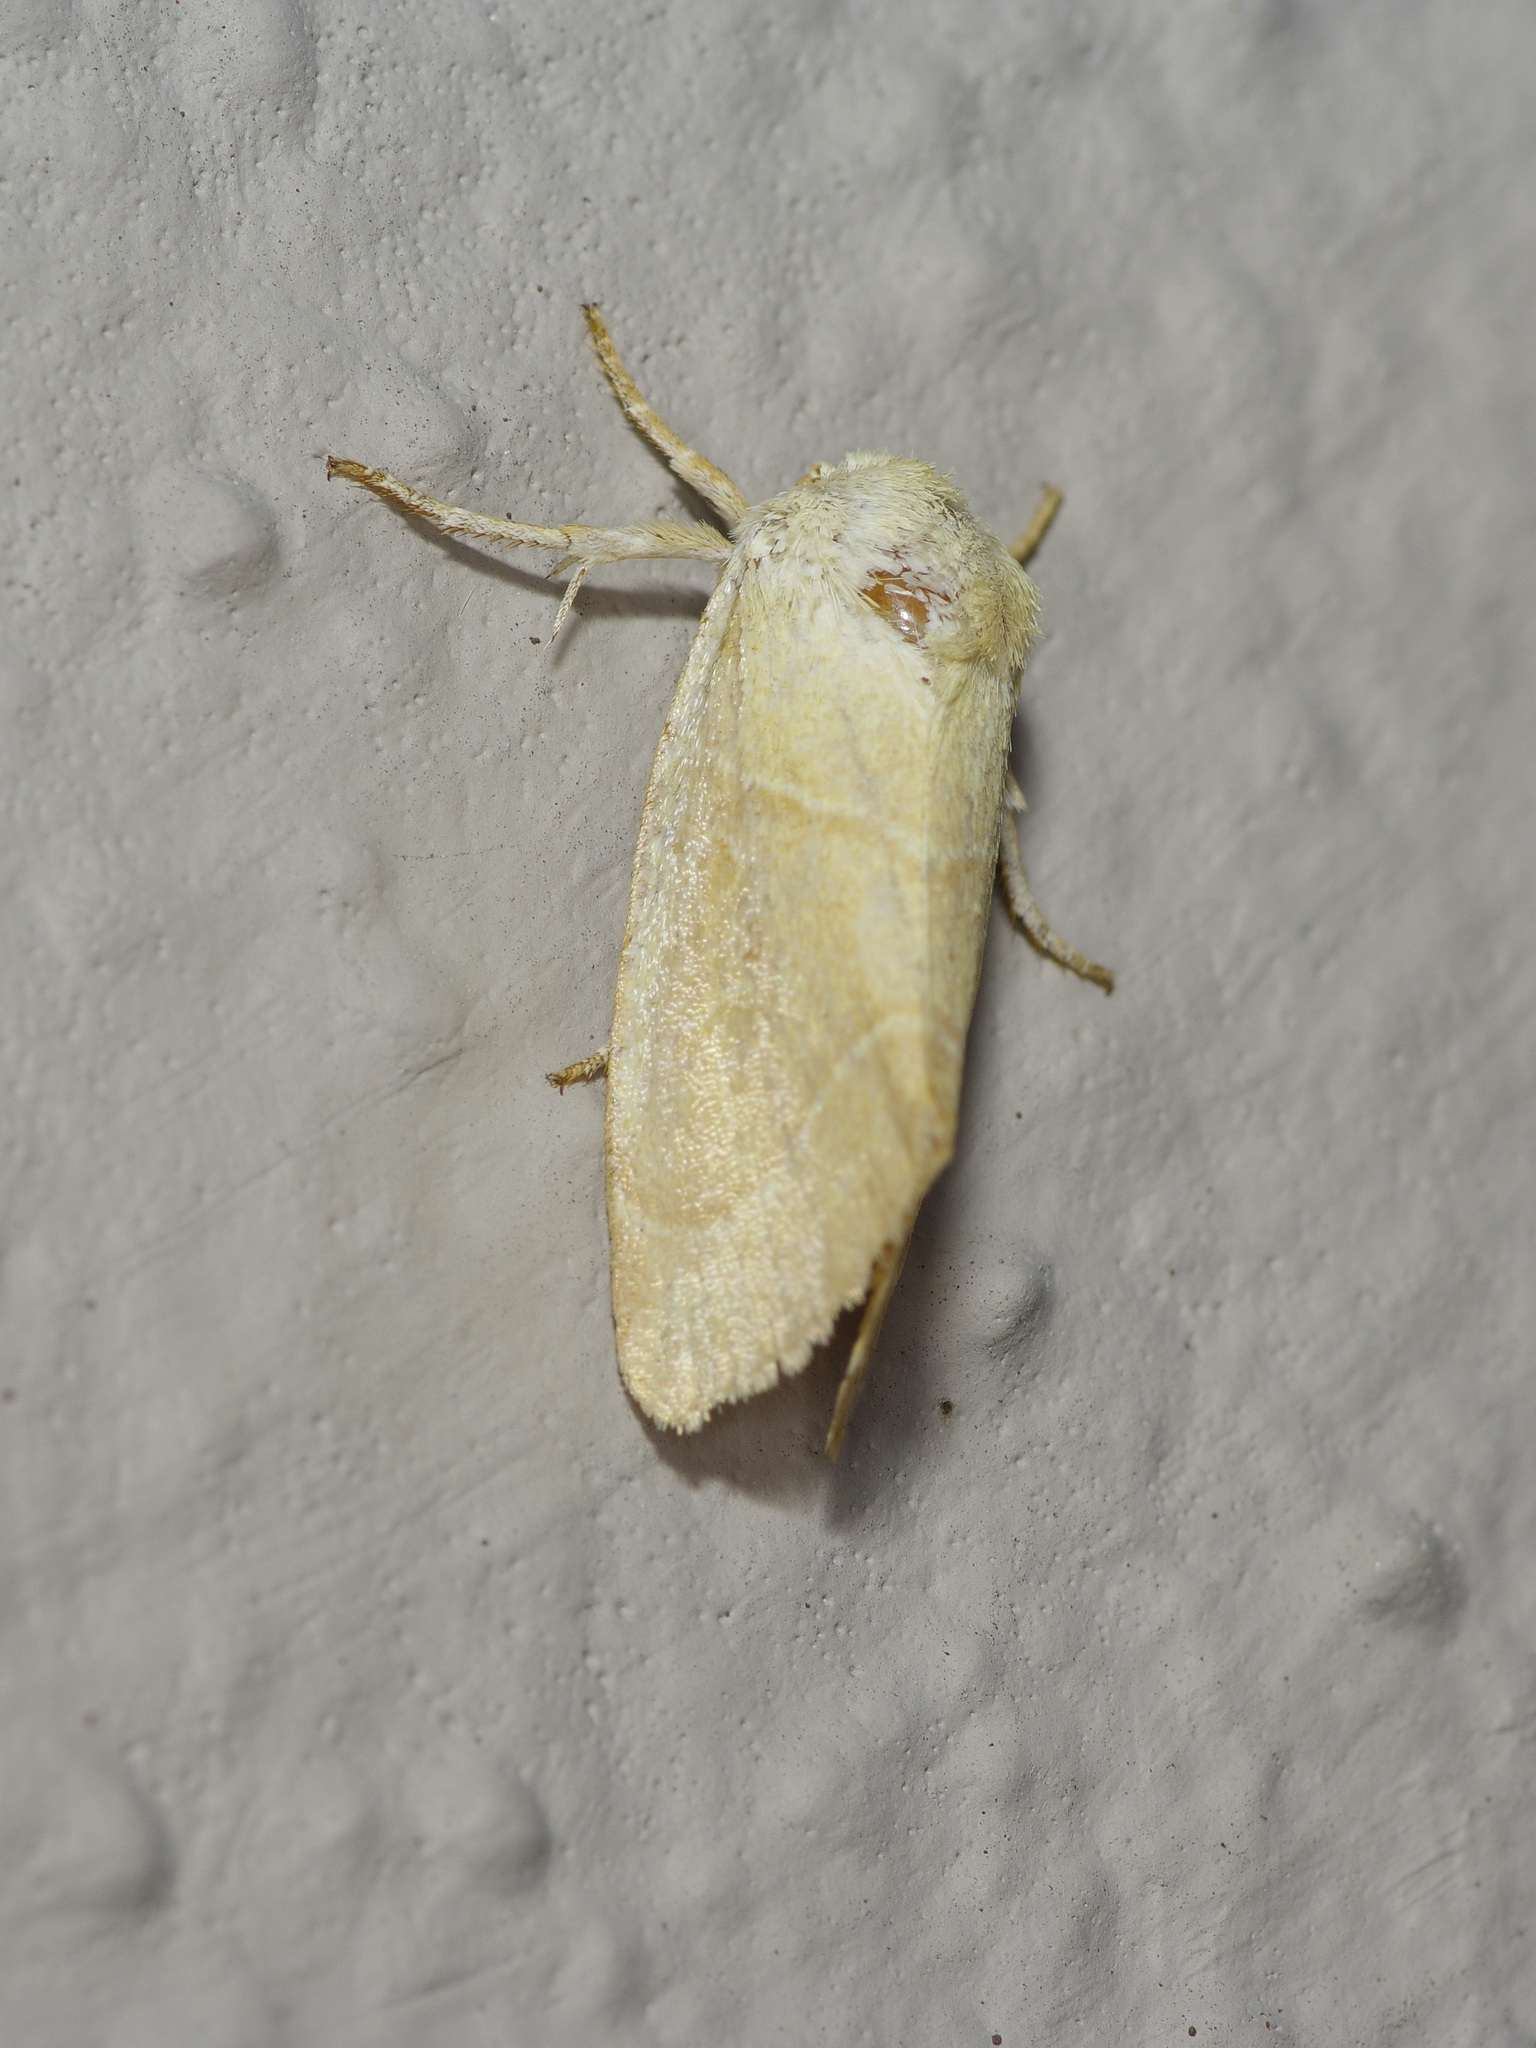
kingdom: Animalia
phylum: Arthropoda
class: Insecta
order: Lepidoptera
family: Noctuidae
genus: Cosmia
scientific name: Cosmia calami
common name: American dun-bar moth
